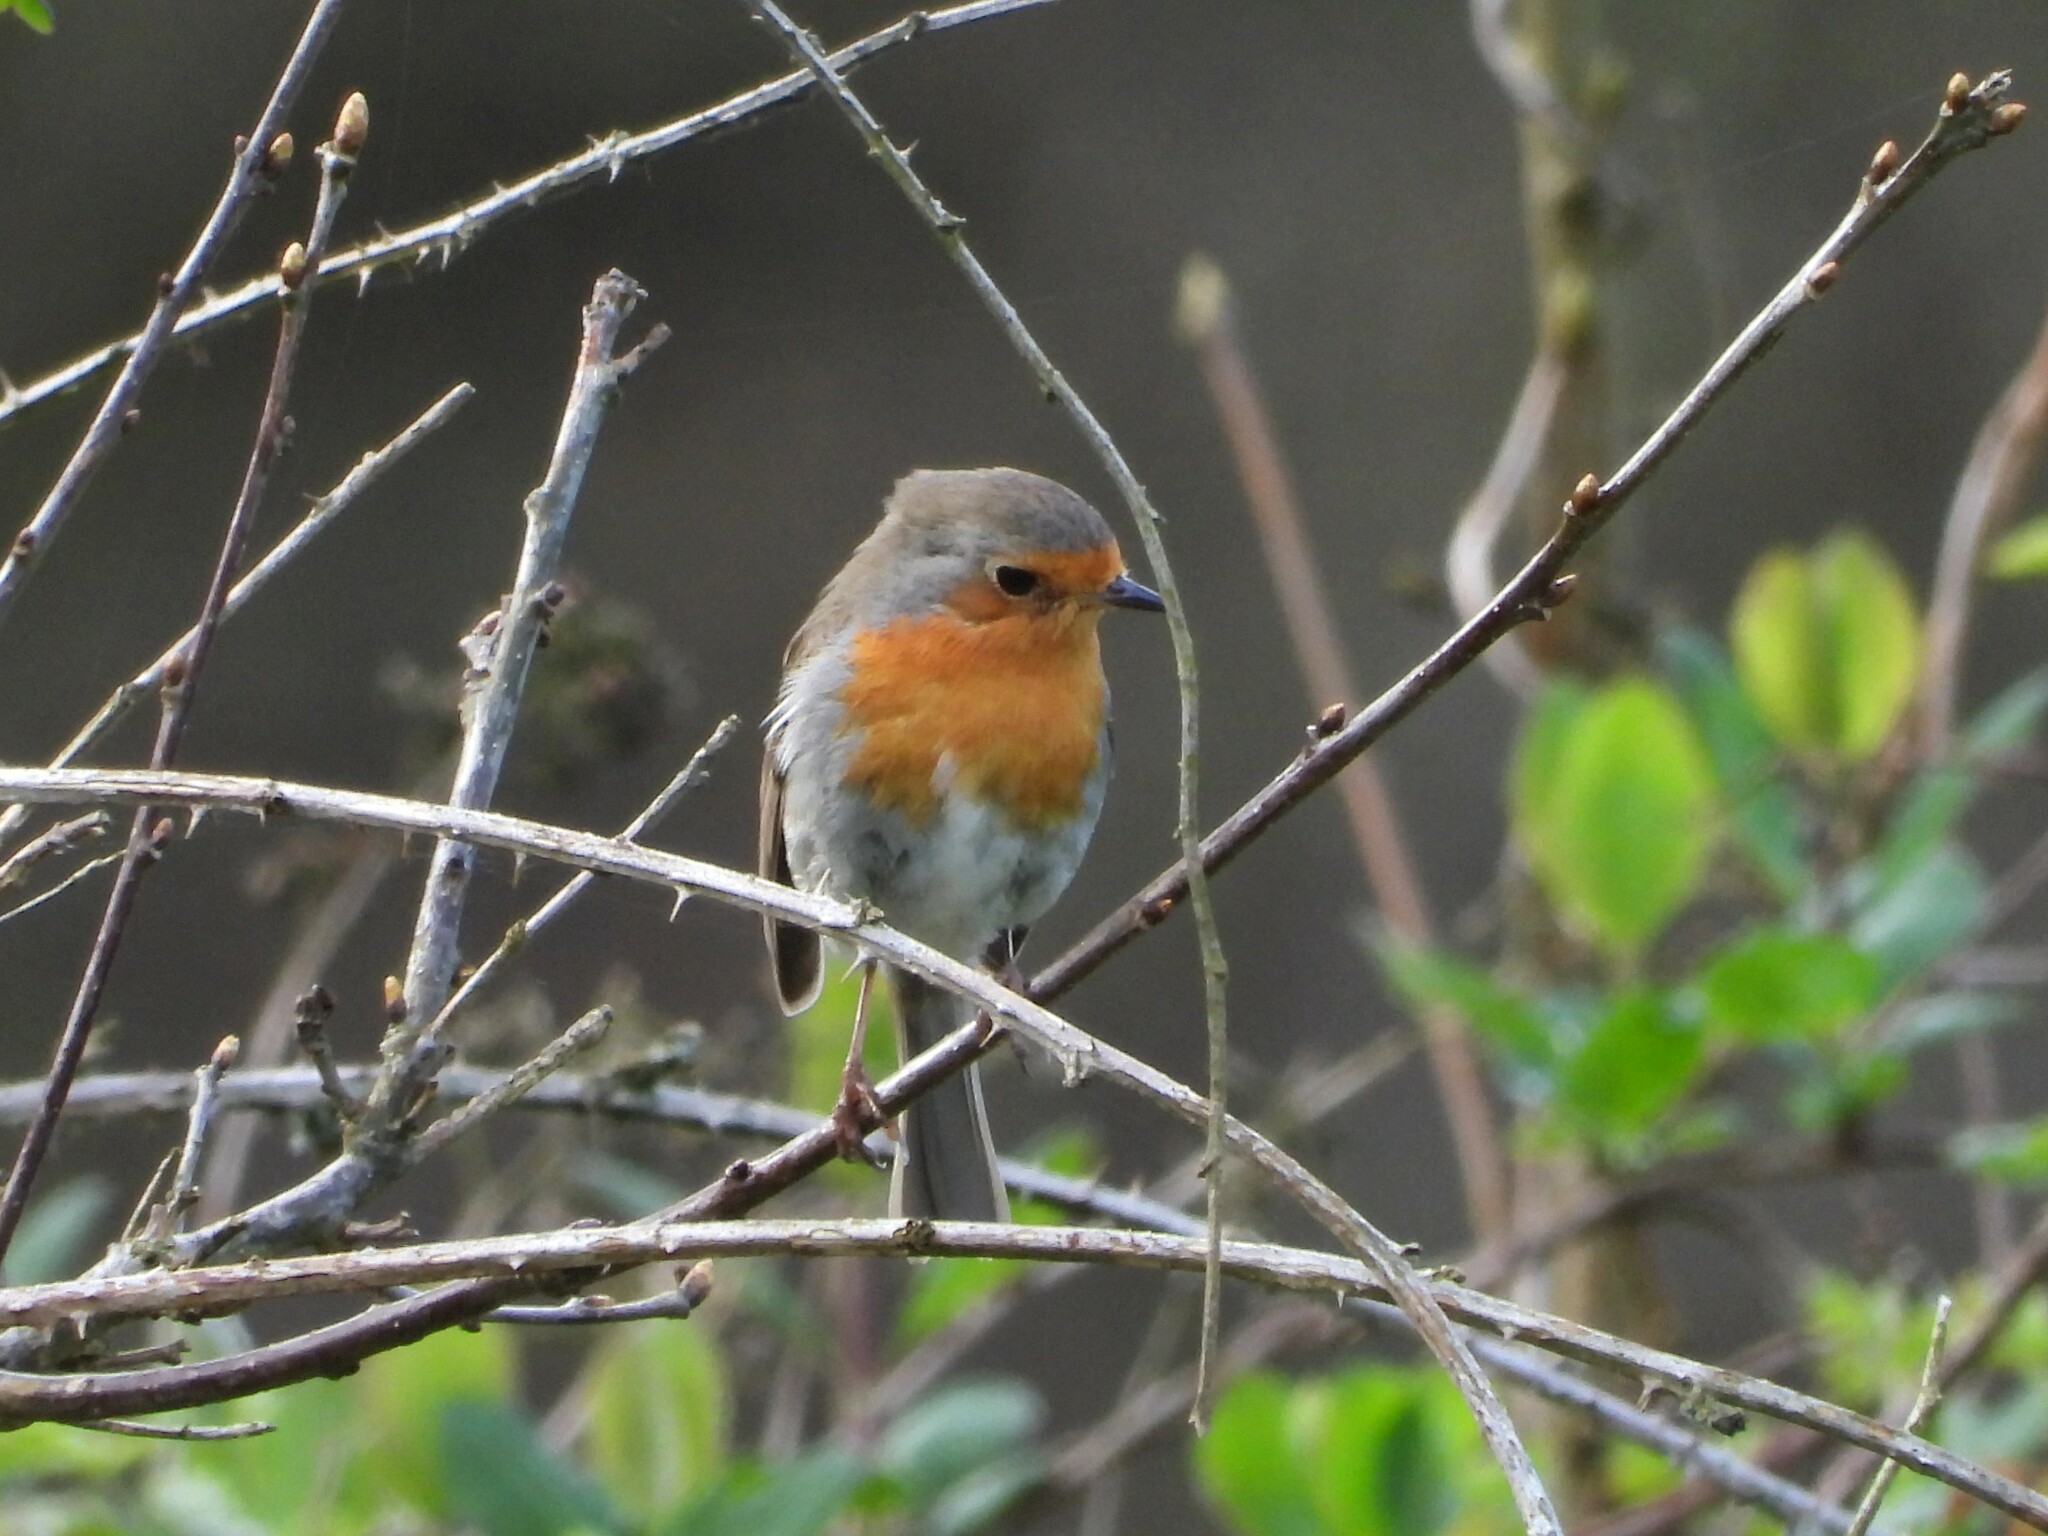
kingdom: Animalia
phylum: Chordata
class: Aves
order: Passeriformes
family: Muscicapidae
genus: Erithacus
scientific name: Erithacus rubecula
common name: European robin
